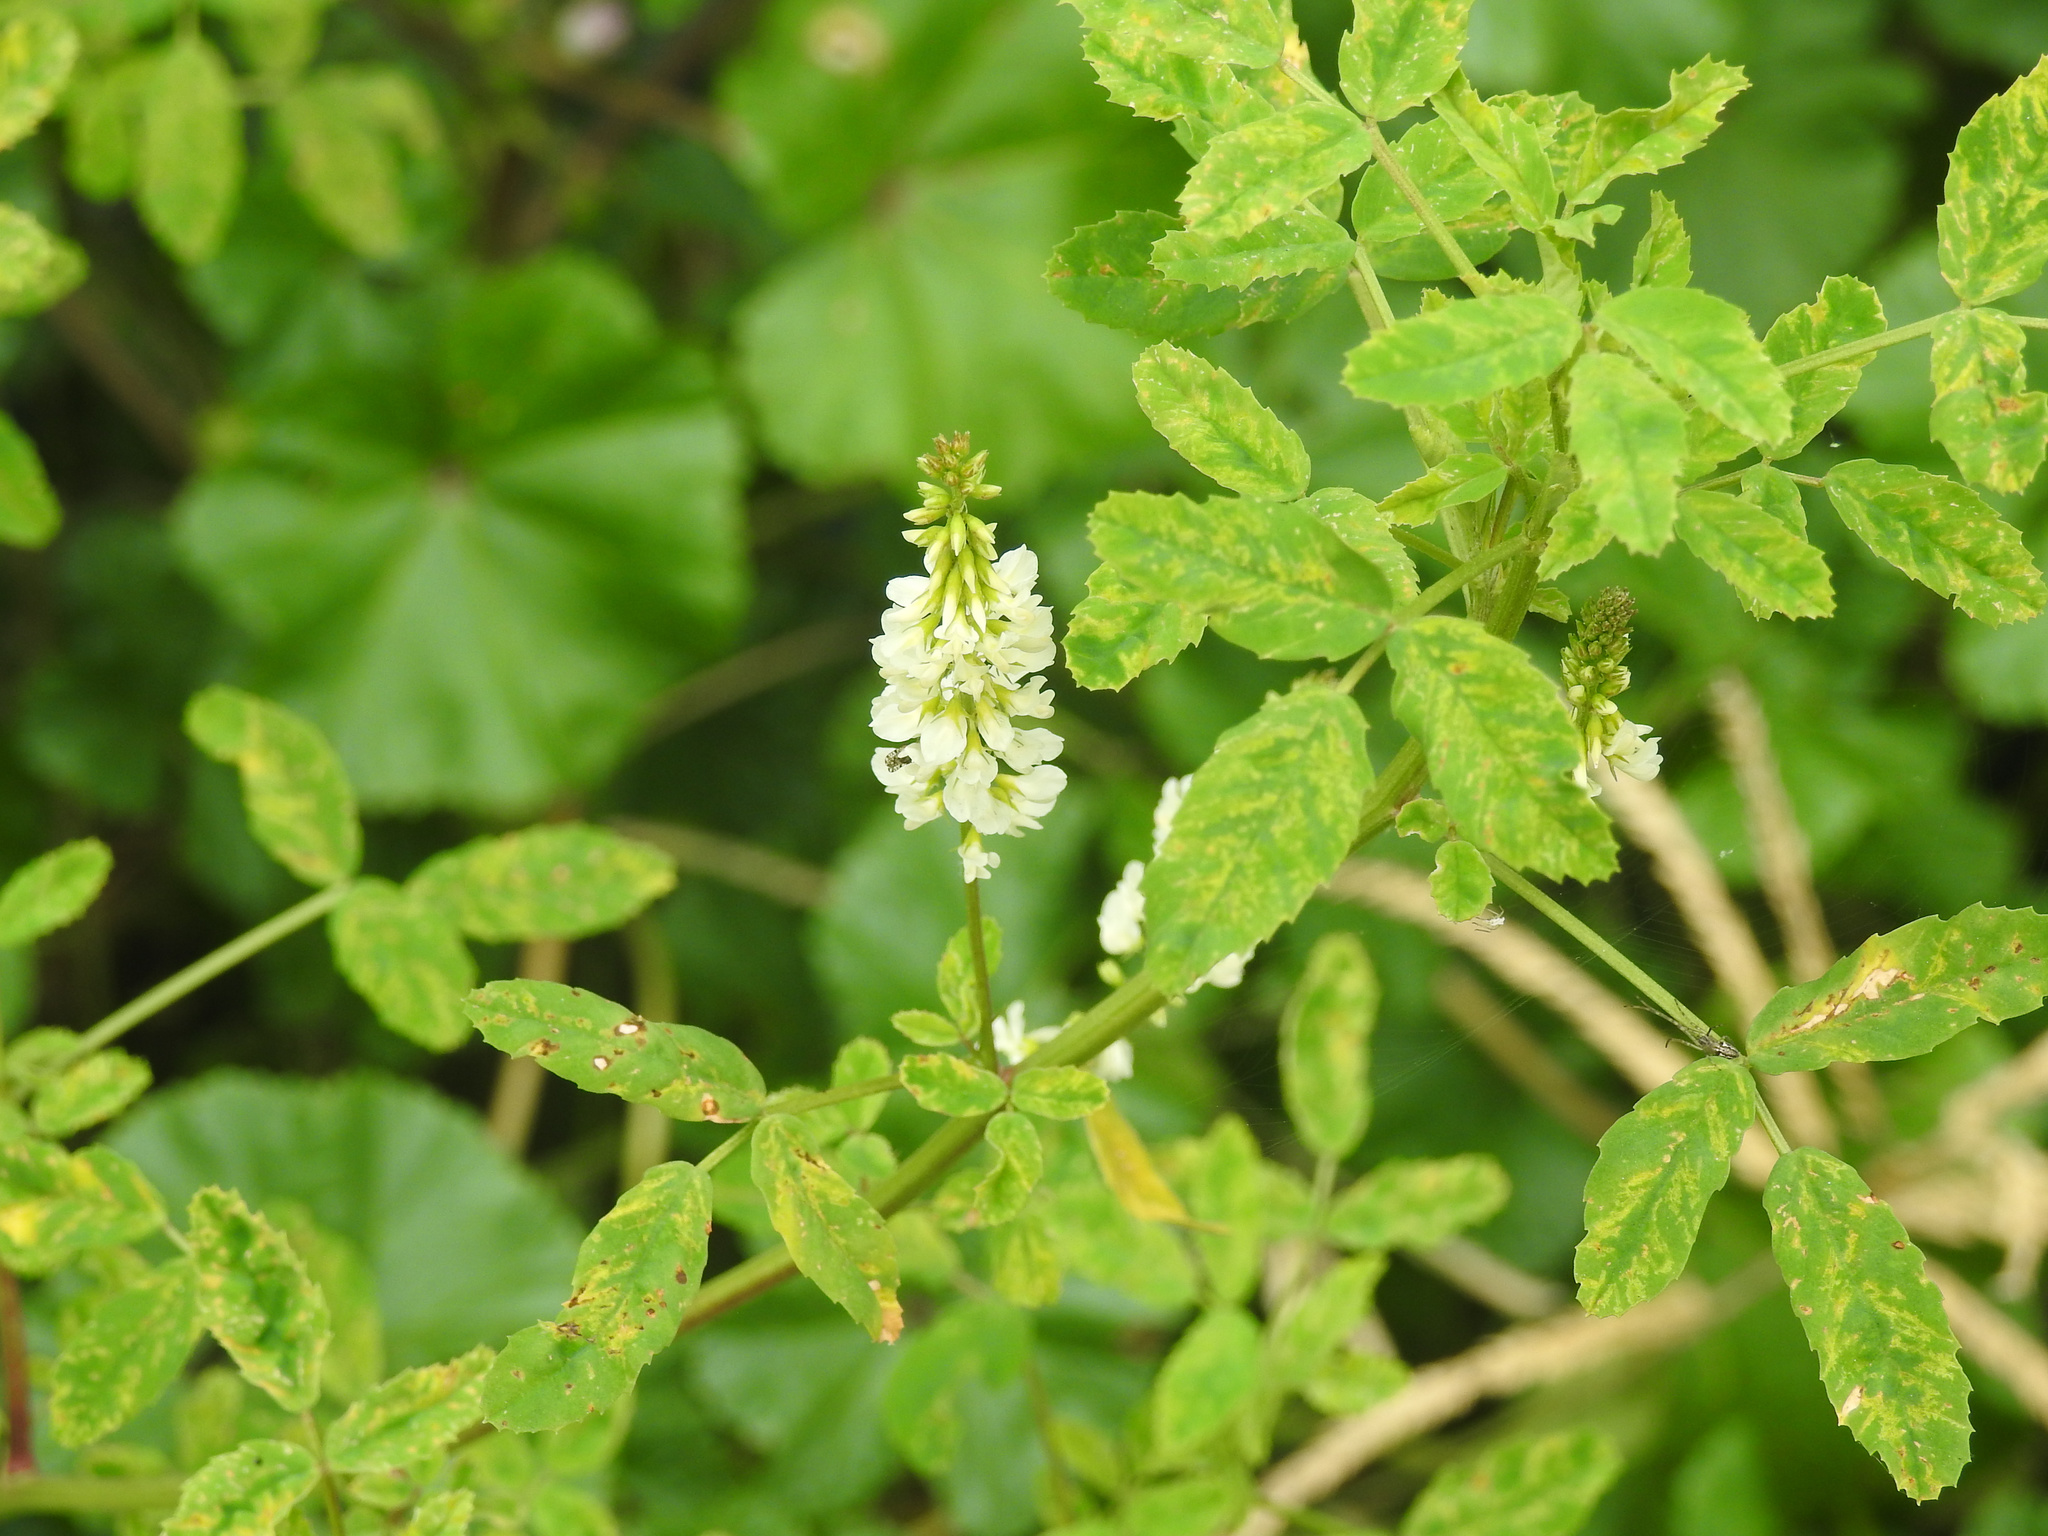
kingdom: Plantae
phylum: Tracheophyta
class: Magnoliopsida
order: Fabales
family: Fabaceae
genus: Melilotus
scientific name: Melilotus albus
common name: White melilot
